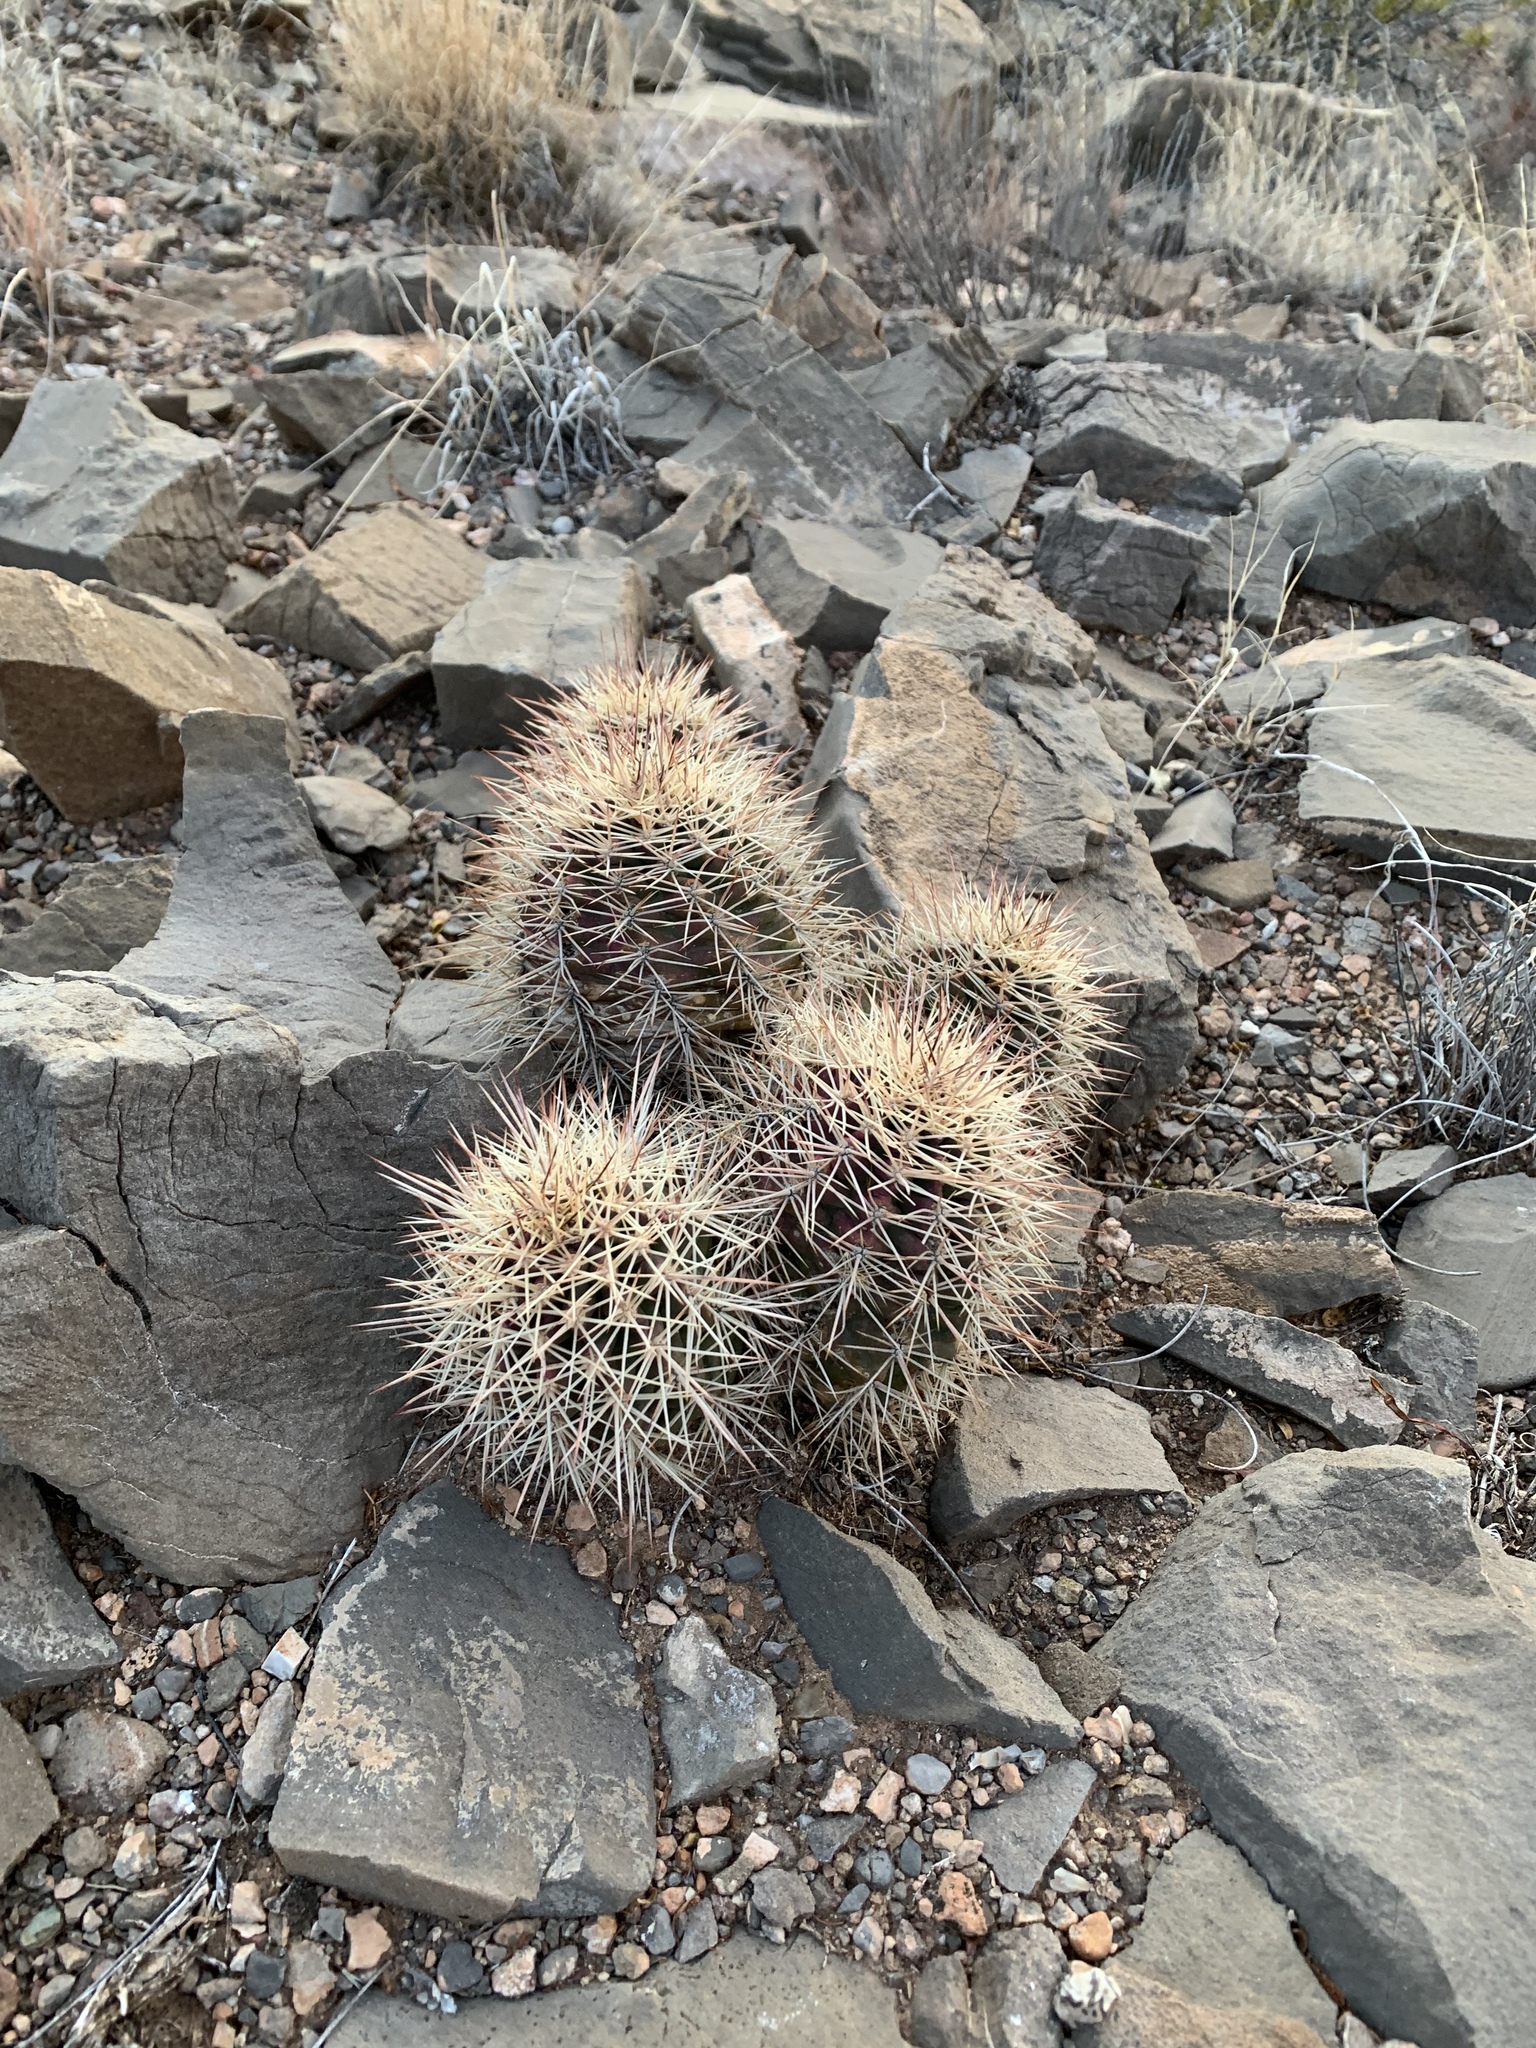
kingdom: Plantae
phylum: Tracheophyta
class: Magnoliopsida
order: Caryophyllales
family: Cactaceae
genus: Echinocereus
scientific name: Echinocereus coccineus
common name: Scarlet hedgehog cactus
